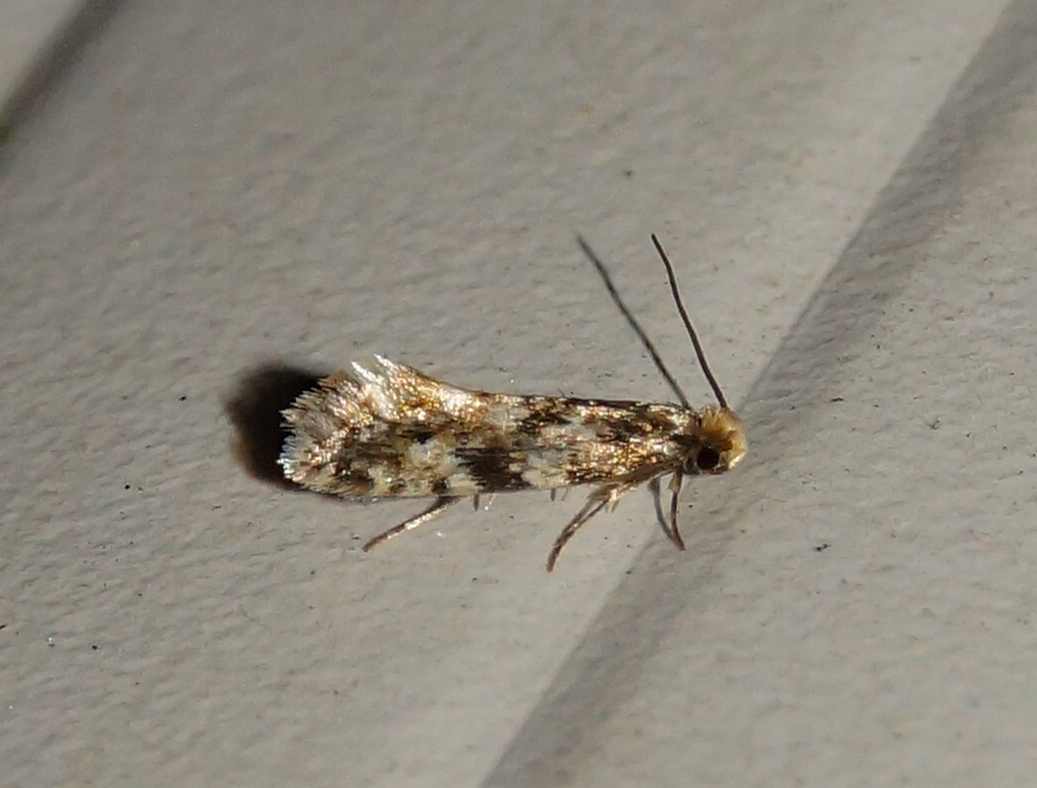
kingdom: Animalia
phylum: Arthropoda
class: Insecta
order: Lepidoptera
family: Tineidae
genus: Nemapogon
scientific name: Nemapogon cloacella
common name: Cork moth
